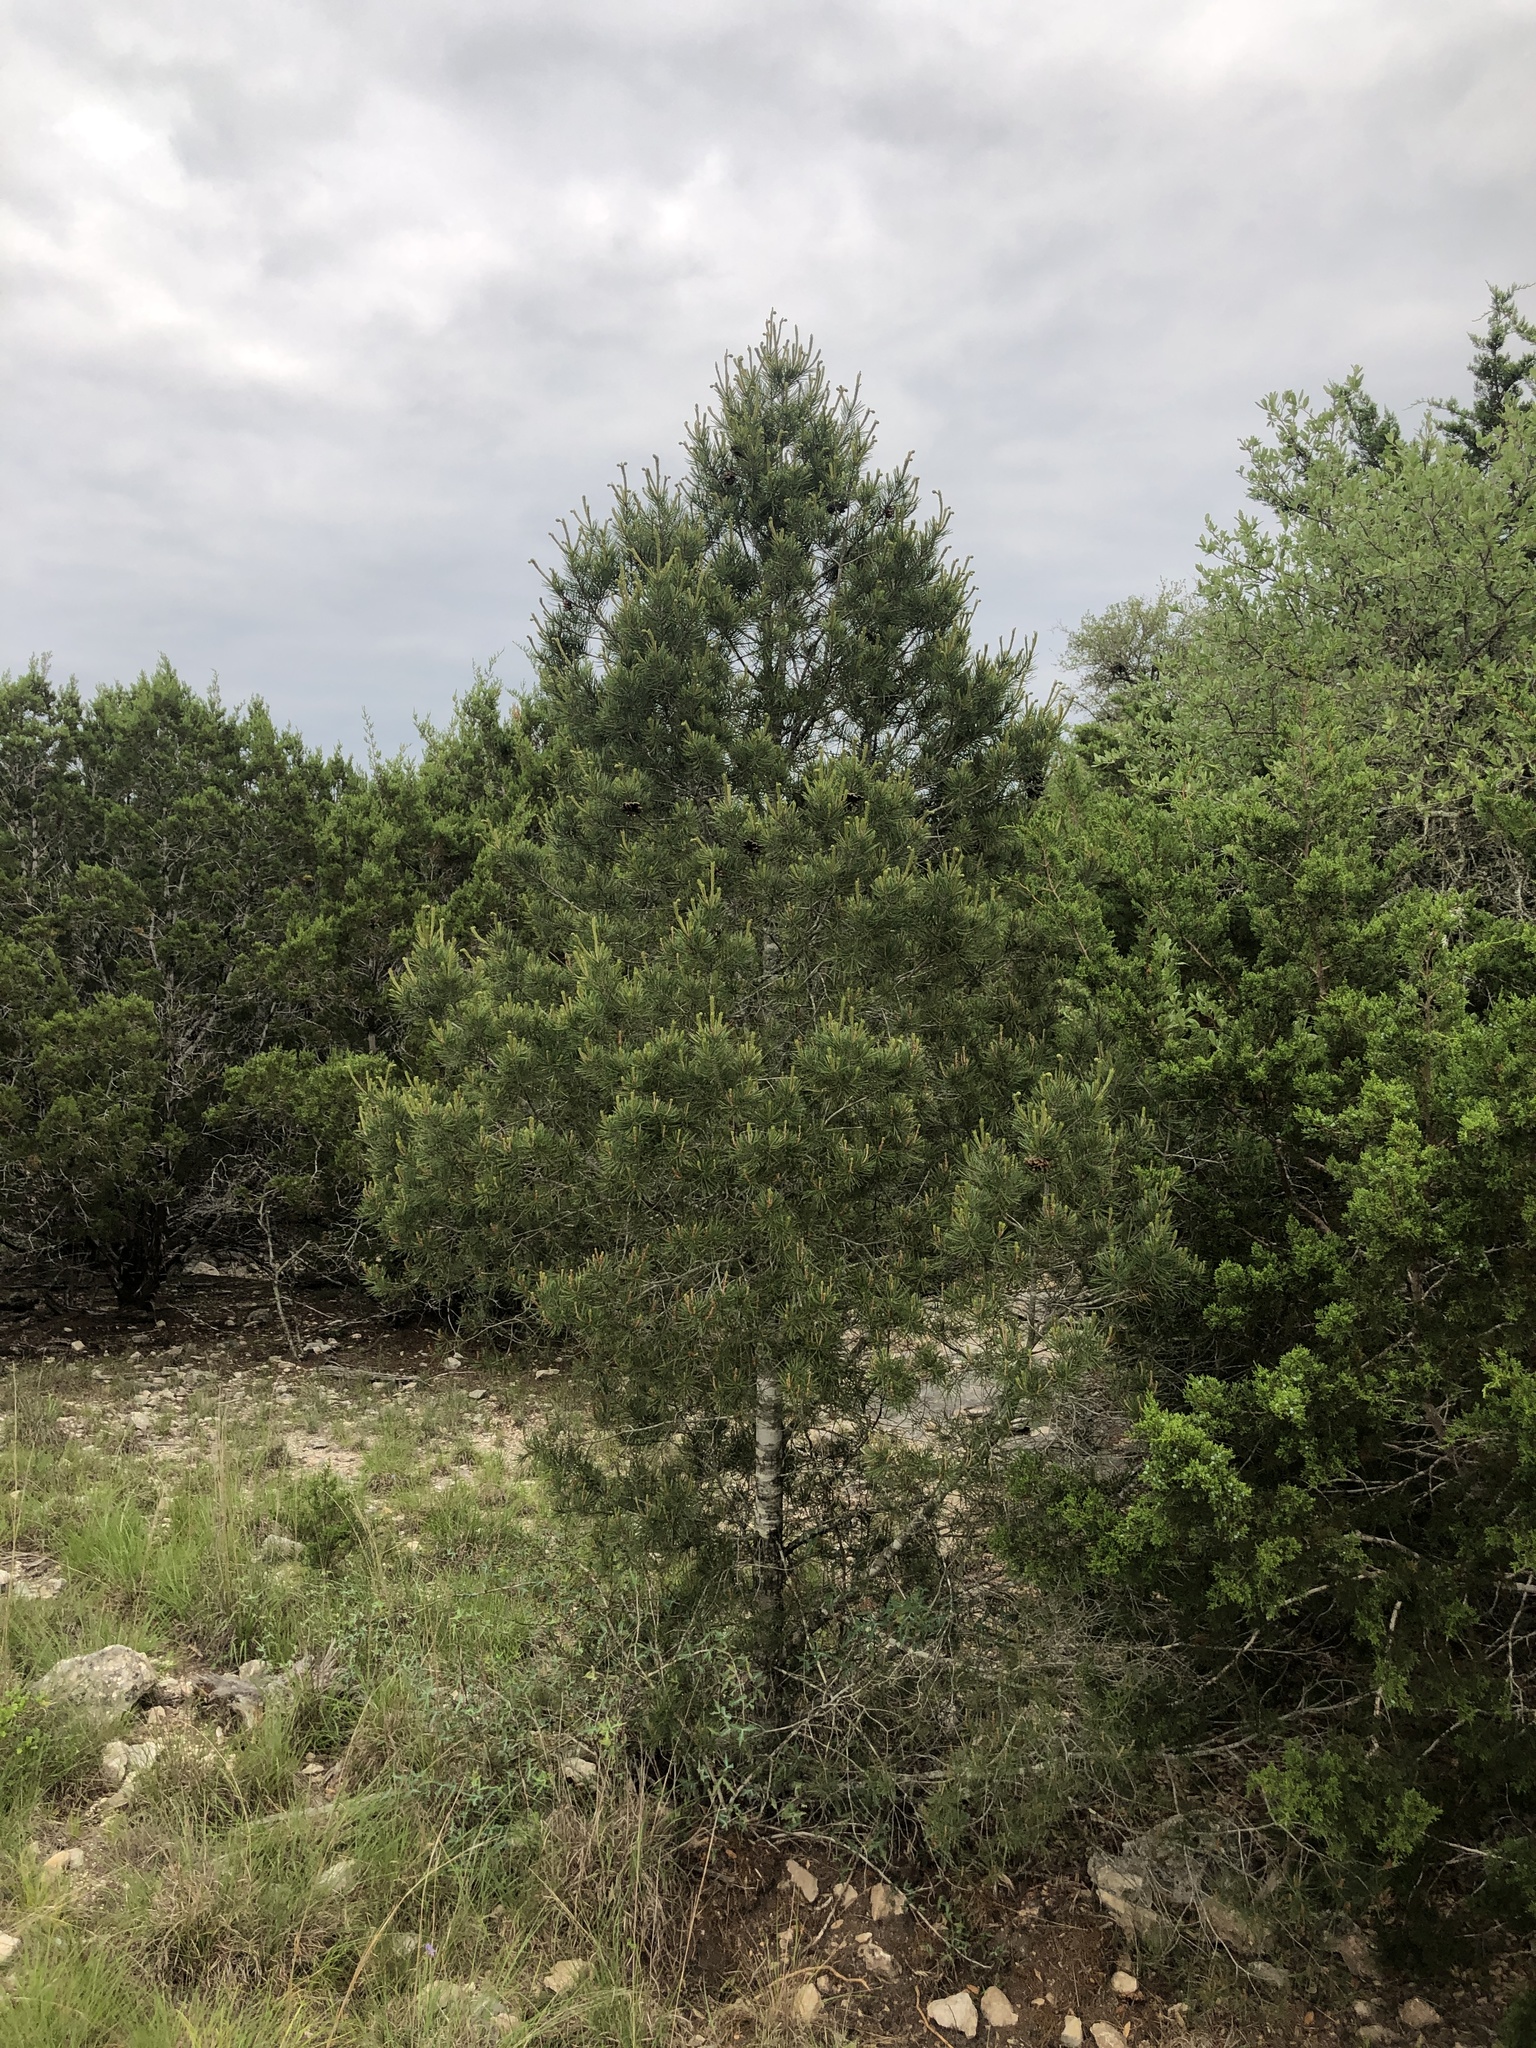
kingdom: Plantae
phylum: Tracheophyta
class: Pinopsida
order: Pinales
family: Pinaceae
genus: Pinus
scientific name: Pinus remota
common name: Nut pine
